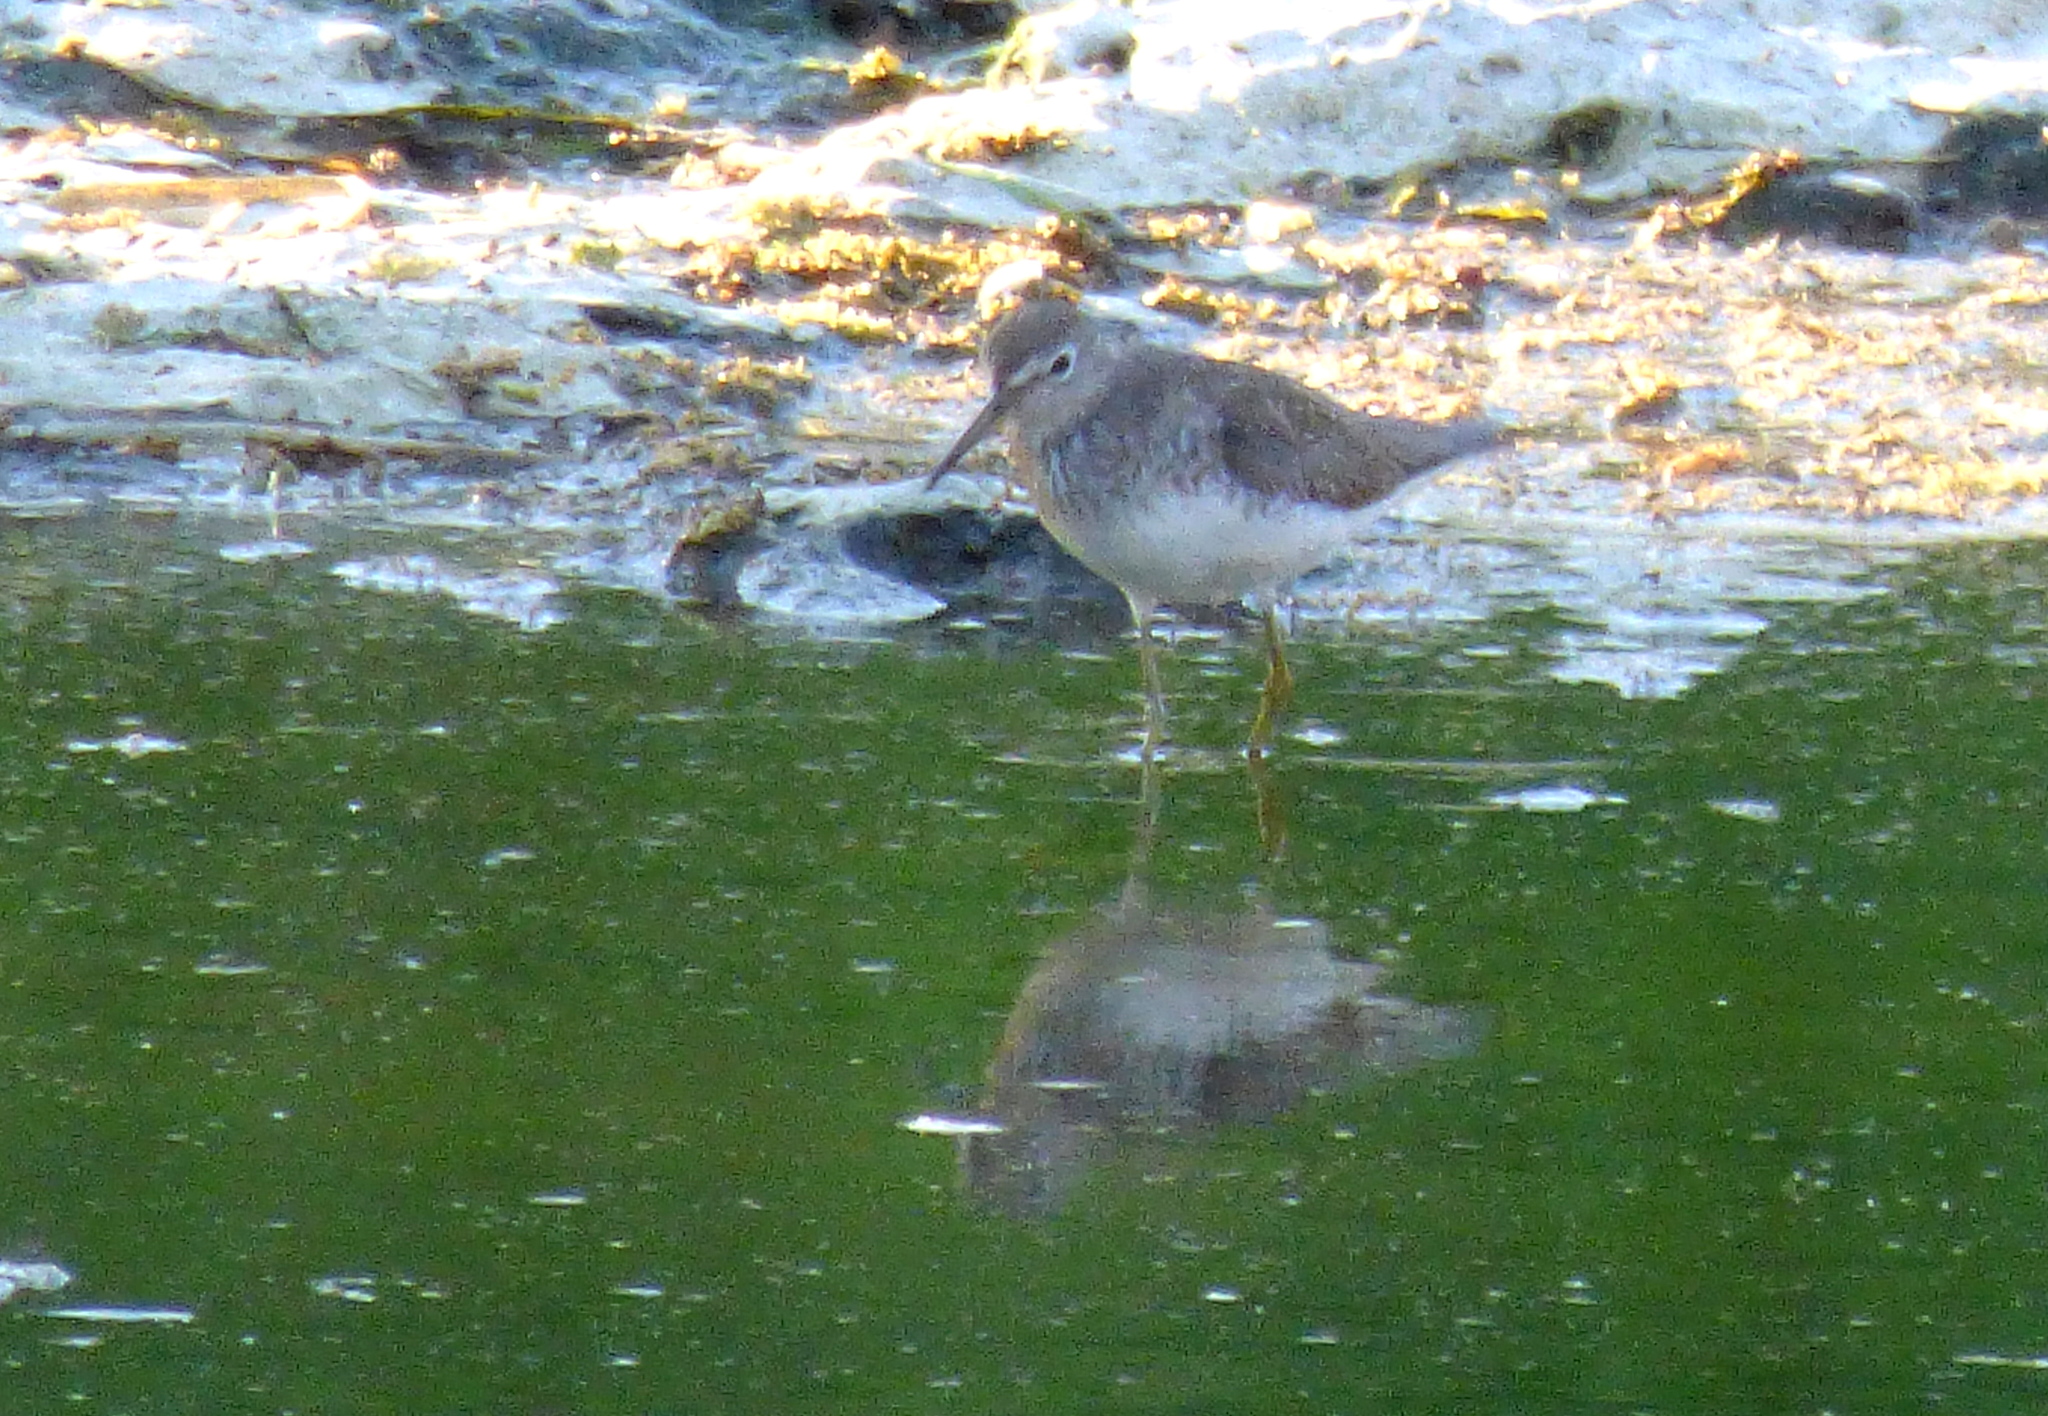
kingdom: Animalia
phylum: Chordata
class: Aves
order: Charadriiformes
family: Scolopacidae
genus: Tringa
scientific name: Tringa solitaria
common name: Solitary sandpiper
